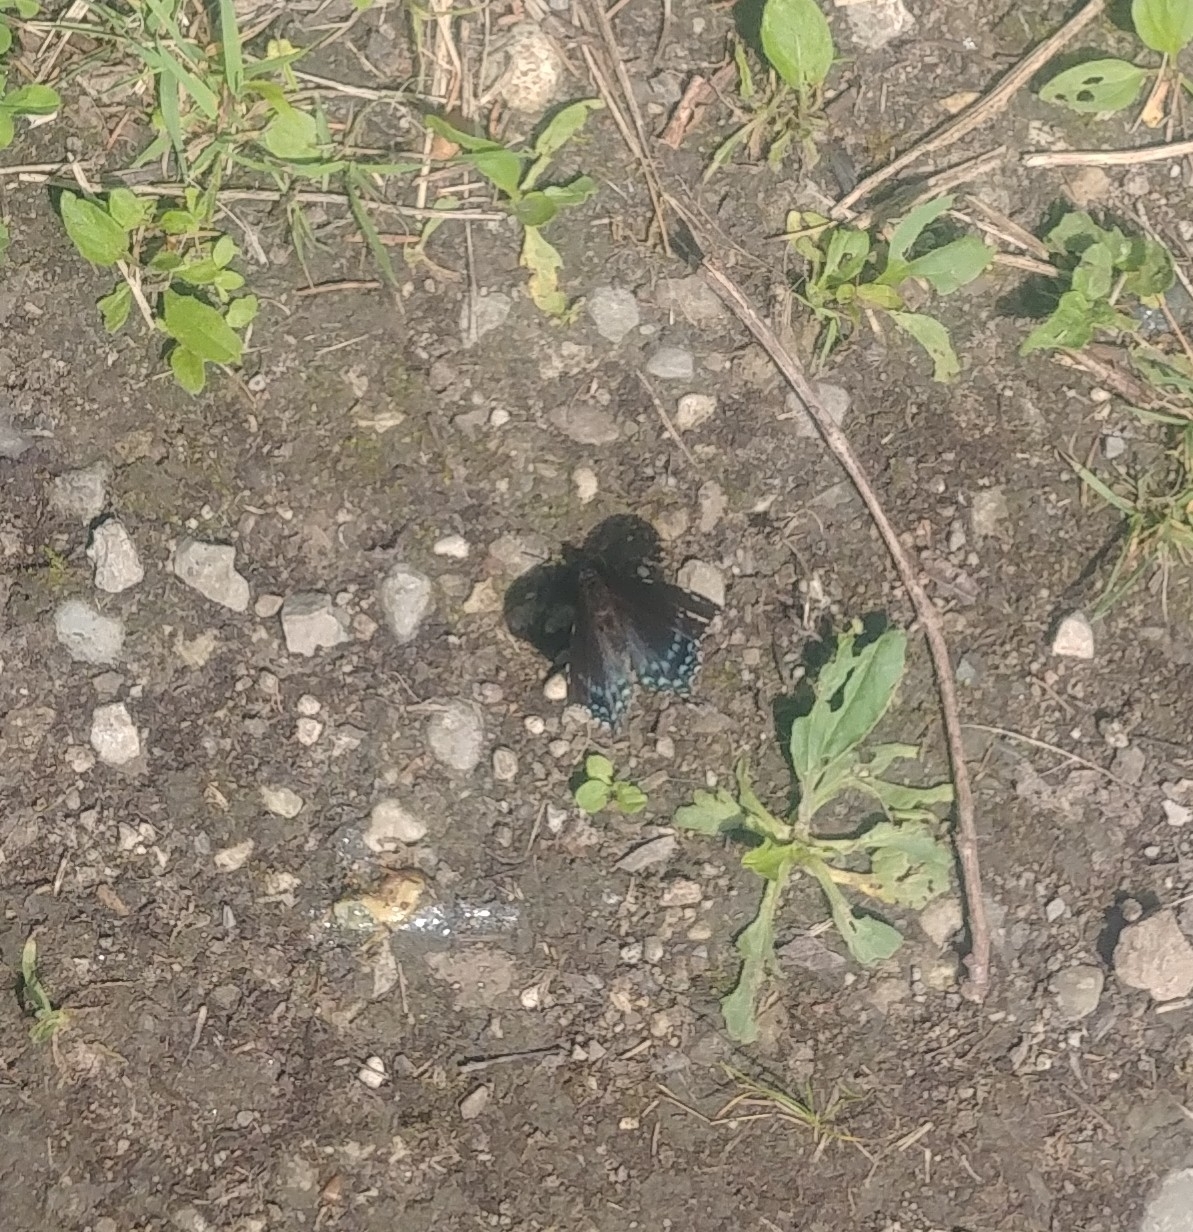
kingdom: Animalia
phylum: Arthropoda
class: Insecta
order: Lepidoptera
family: Nymphalidae
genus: Limenitis
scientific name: Limenitis astyanax
